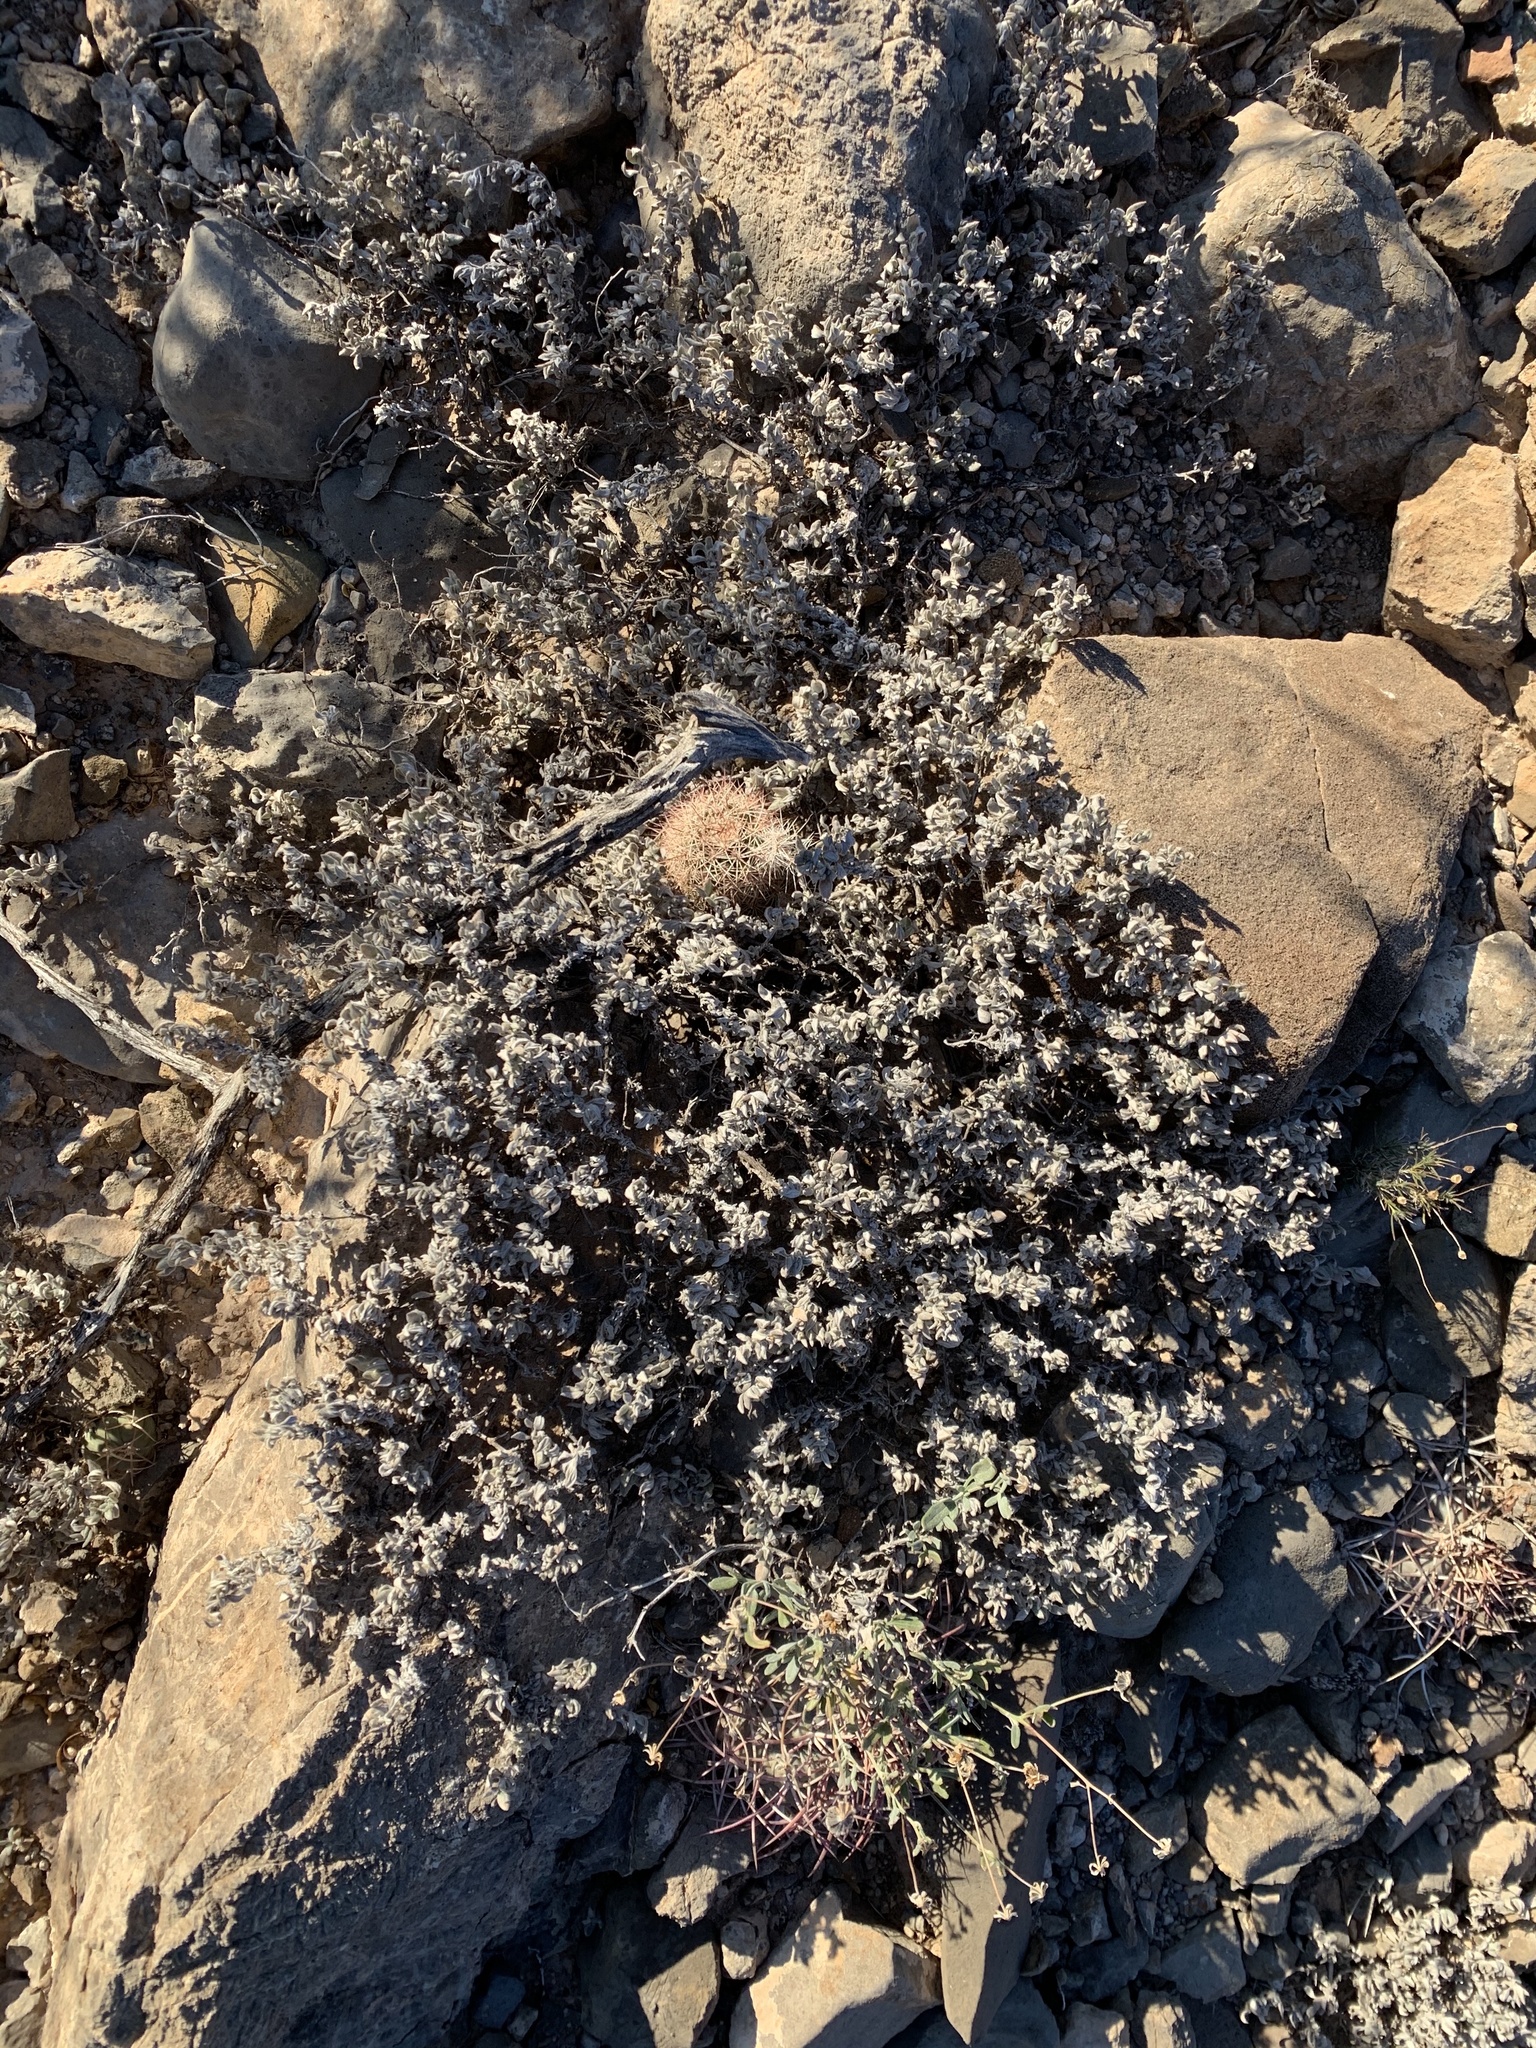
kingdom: Plantae
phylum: Tracheophyta
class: Magnoliopsida
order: Boraginales
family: Ehretiaceae
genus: Tiquilia
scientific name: Tiquilia canescens
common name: Hairy tiquilia
